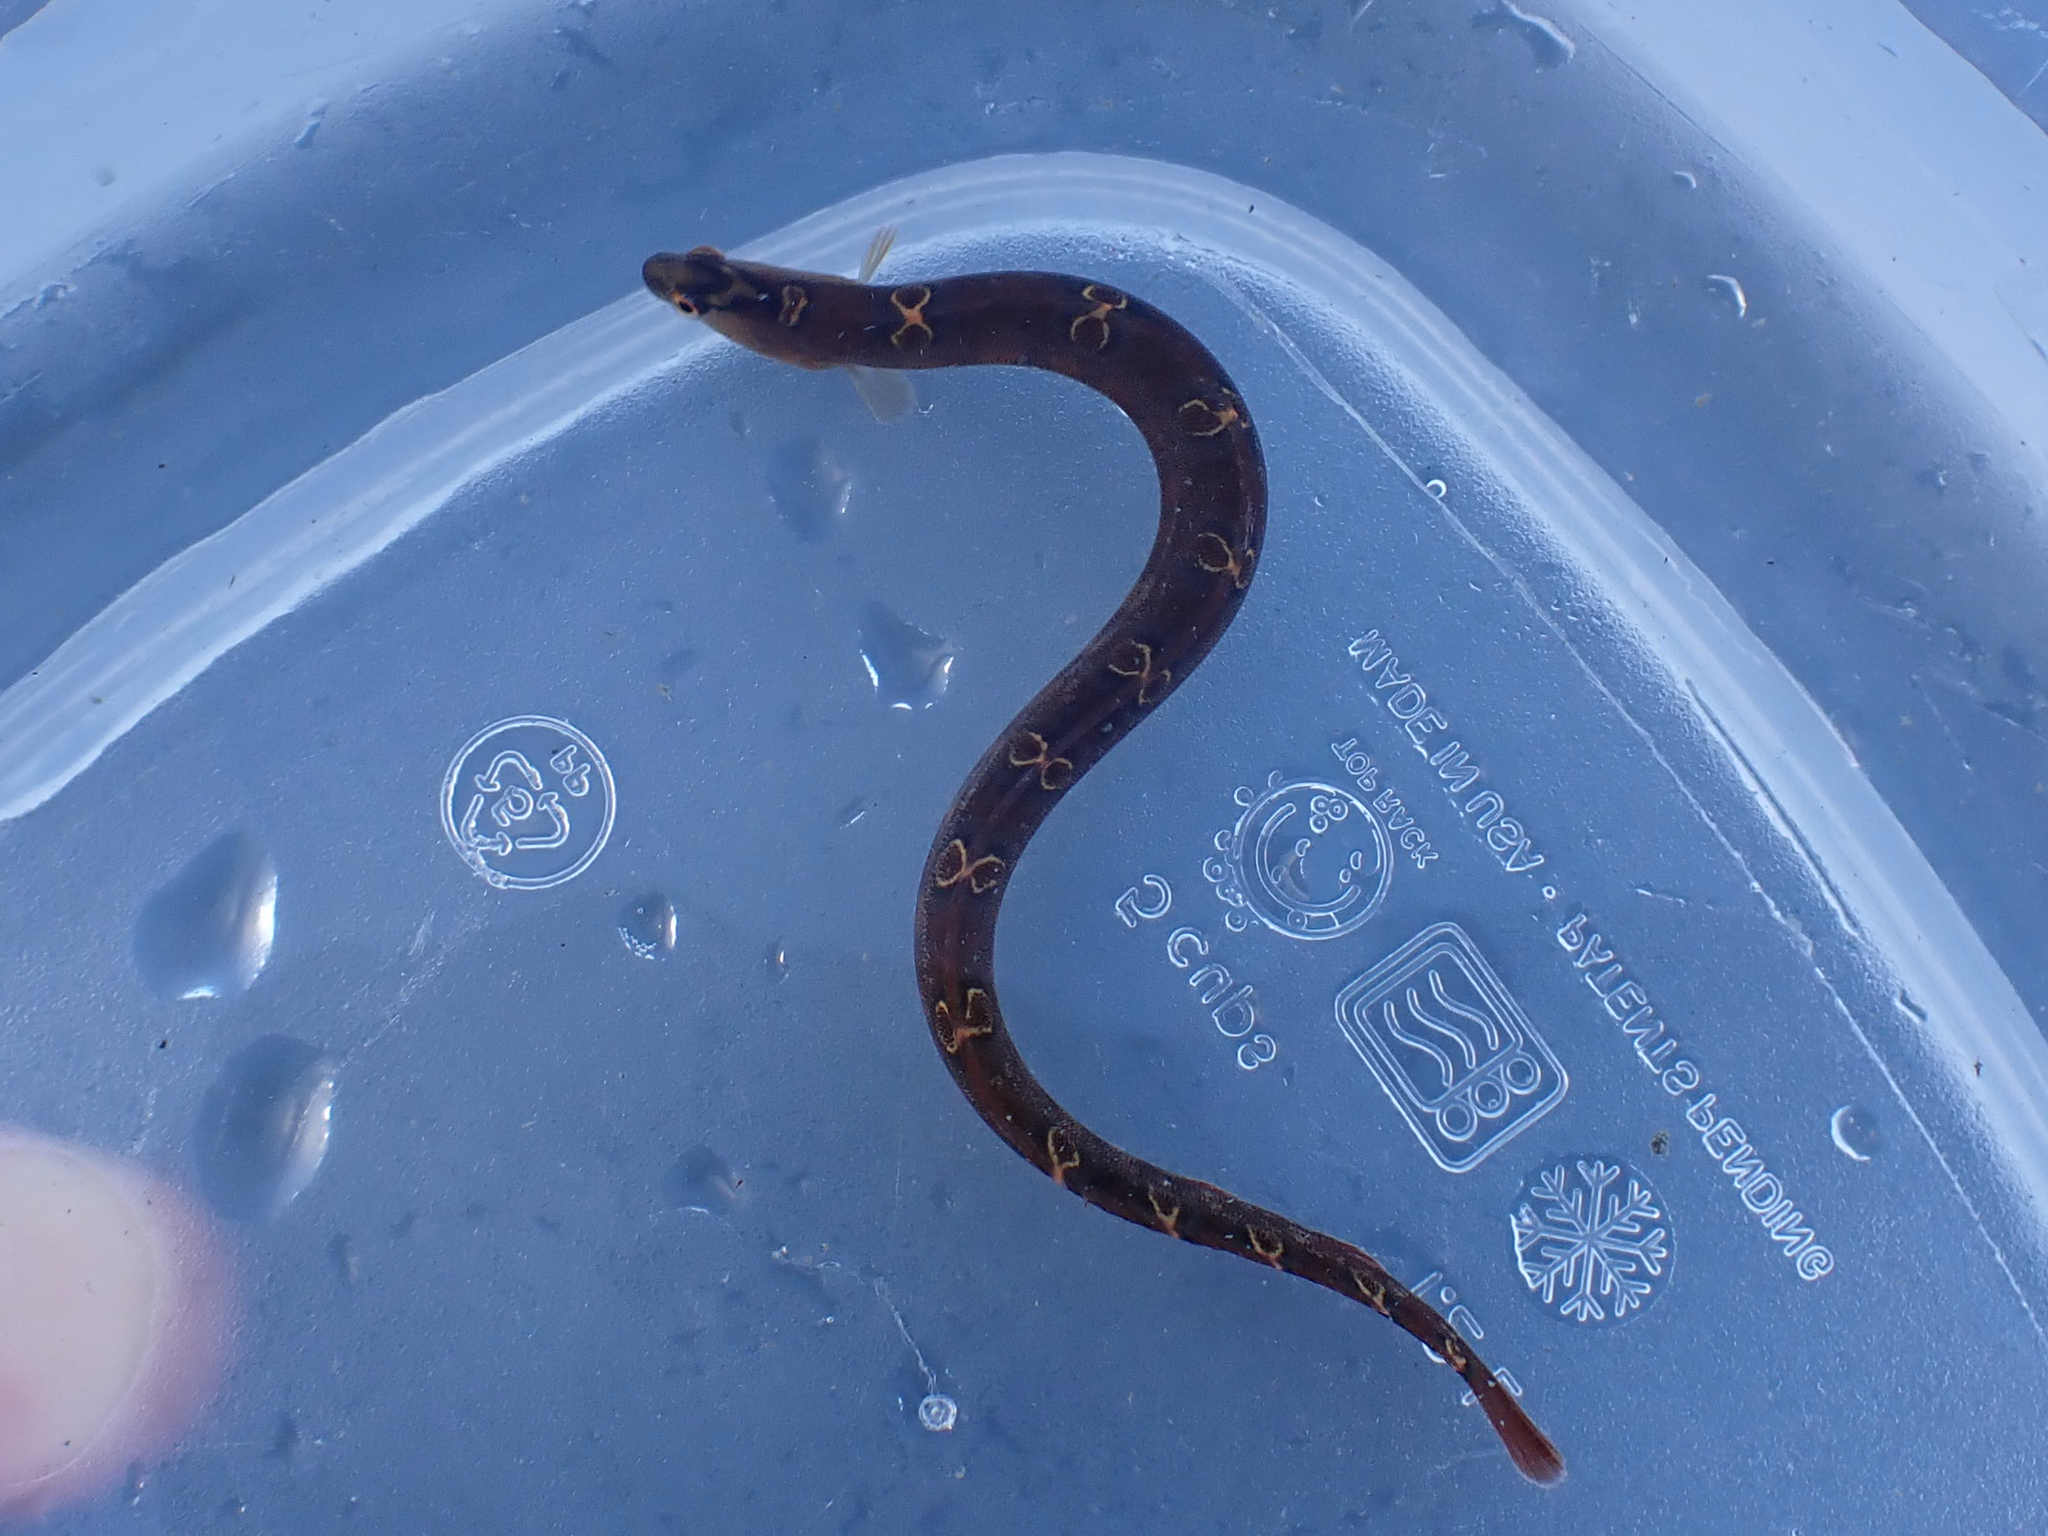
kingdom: Animalia
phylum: Chordata
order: Perciformes
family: Pholidae
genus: Pholis
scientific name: Pholis laeta
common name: Crescent gunnel
